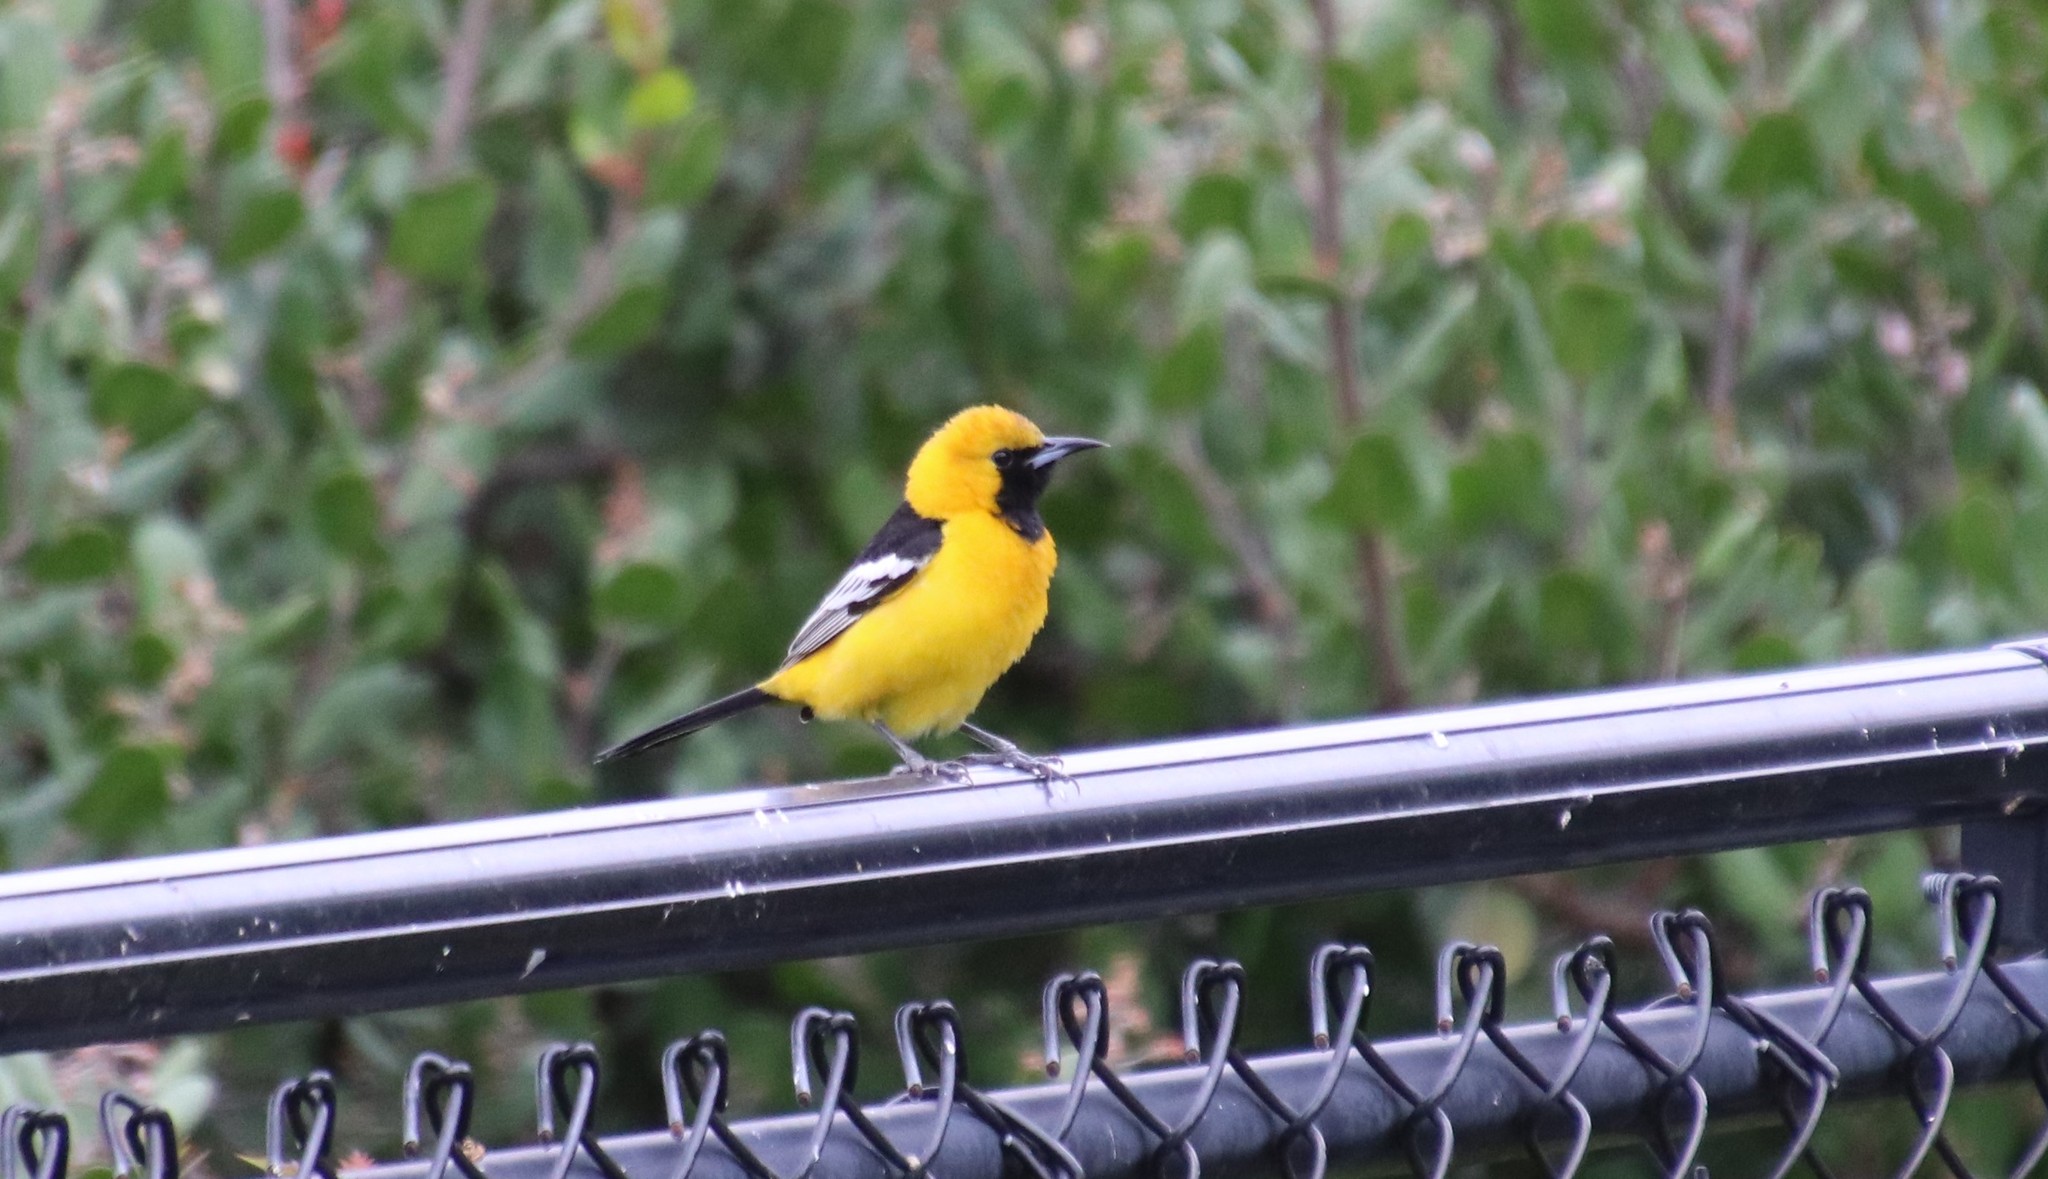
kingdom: Animalia
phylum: Chordata
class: Aves
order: Passeriformes
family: Icteridae
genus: Icterus
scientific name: Icterus cucullatus
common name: Hooded oriole
